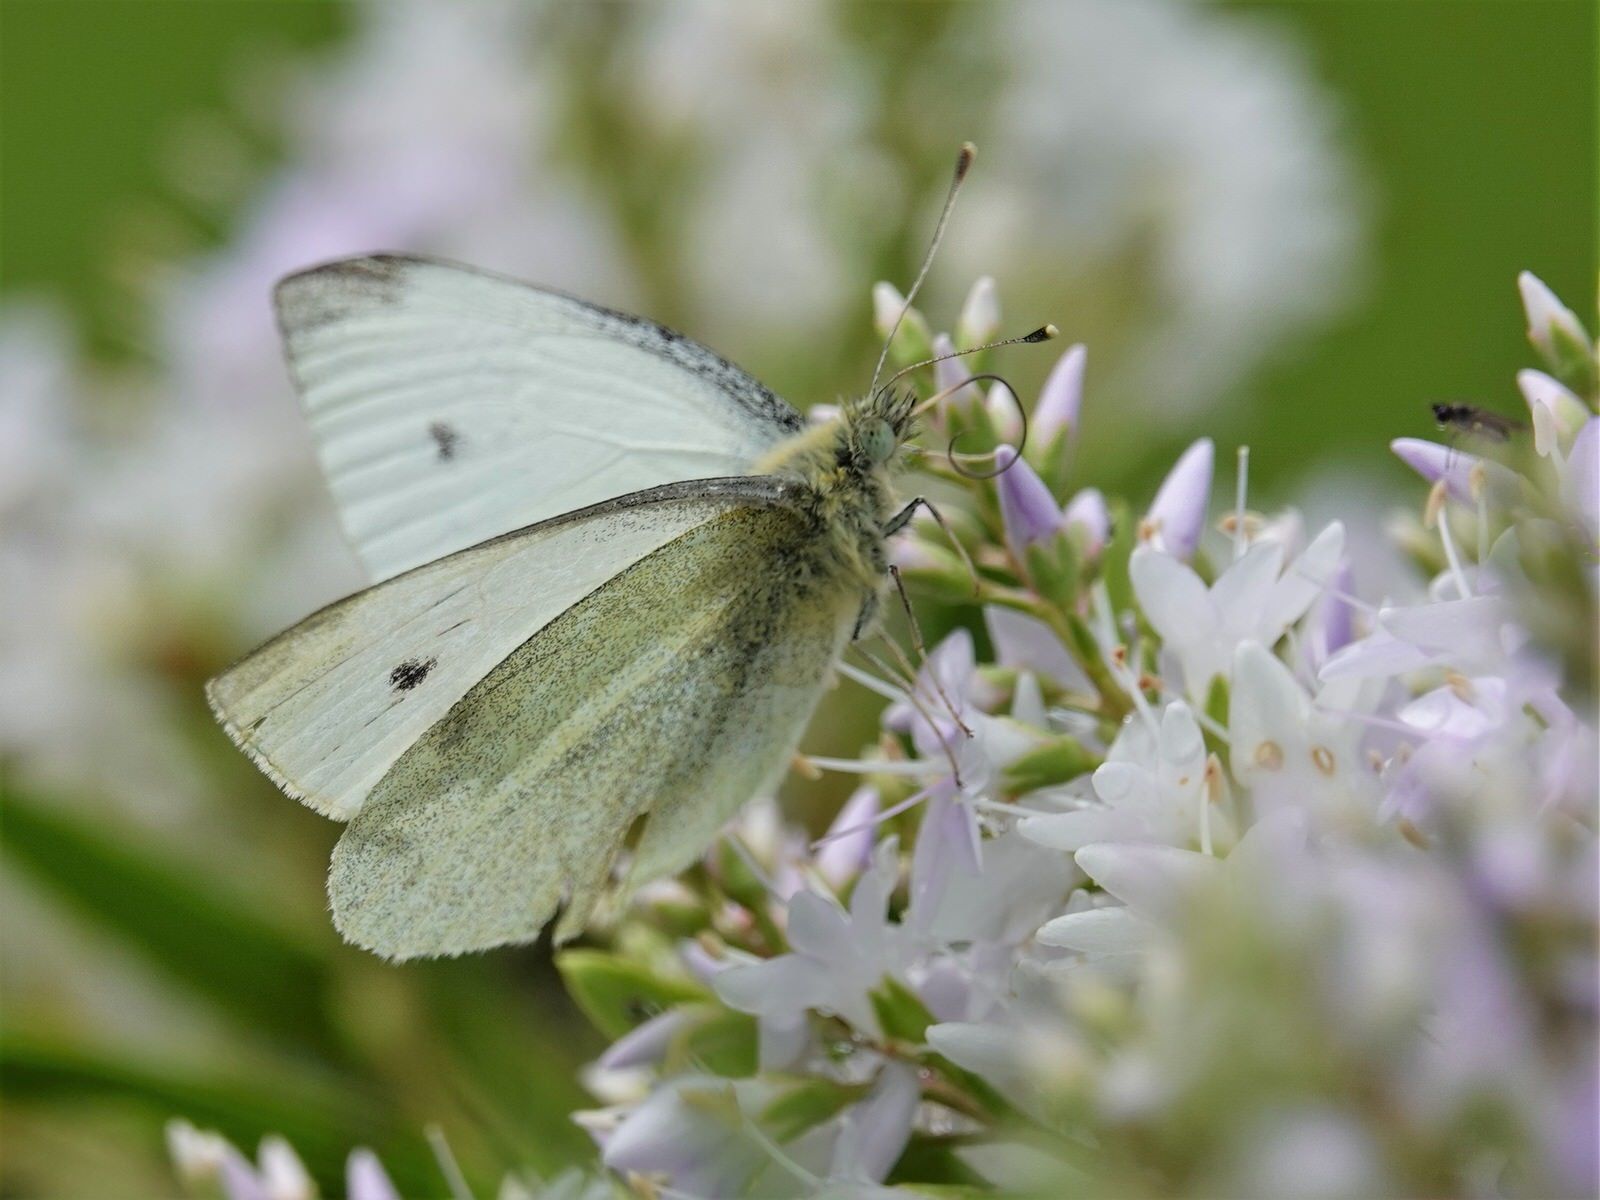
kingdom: Animalia
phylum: Arthropoda
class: Insecta
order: Lepidoptera
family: Pieridae
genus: Pieris
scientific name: Pieris rapae
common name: Small white
